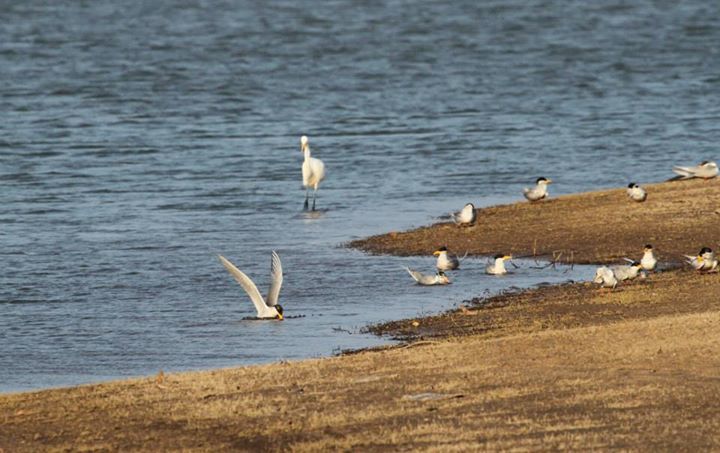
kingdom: Animalia
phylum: Chordata
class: Aves
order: Charadriiformes
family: Laridae
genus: Sterna
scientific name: Sterna aurantia
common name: River tern
